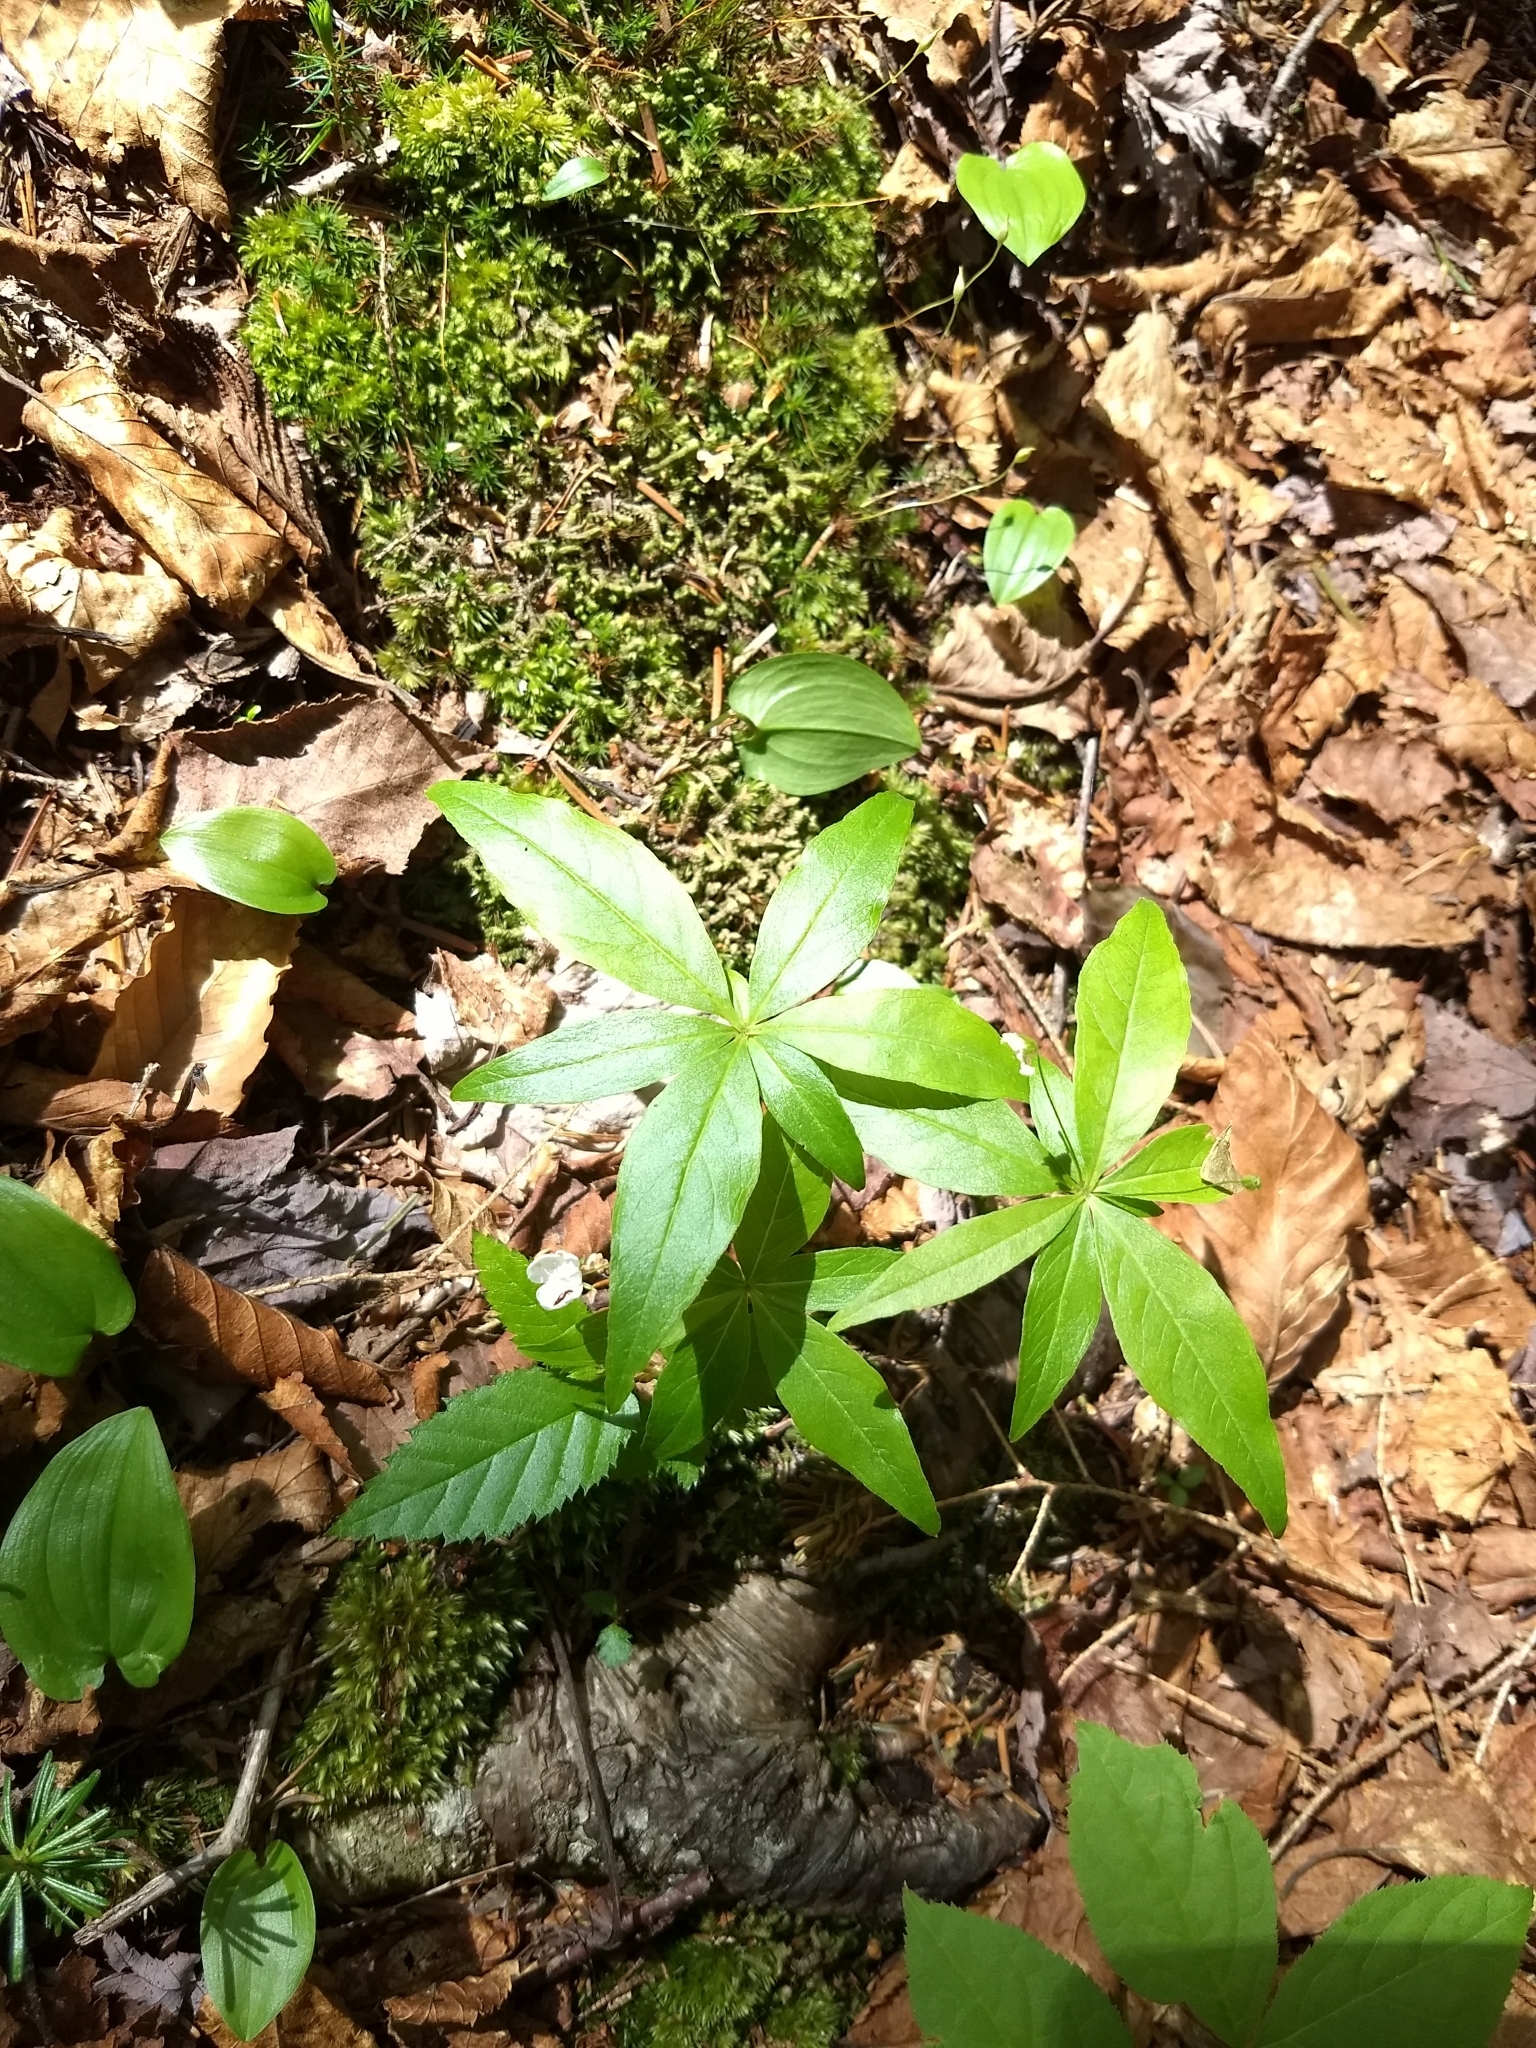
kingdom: Plantae
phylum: Tracheophyta
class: Magnoliopsida
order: Ericales
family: Primulaceae
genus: Lysimachia
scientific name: Lysimachia borealis
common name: American starflower
